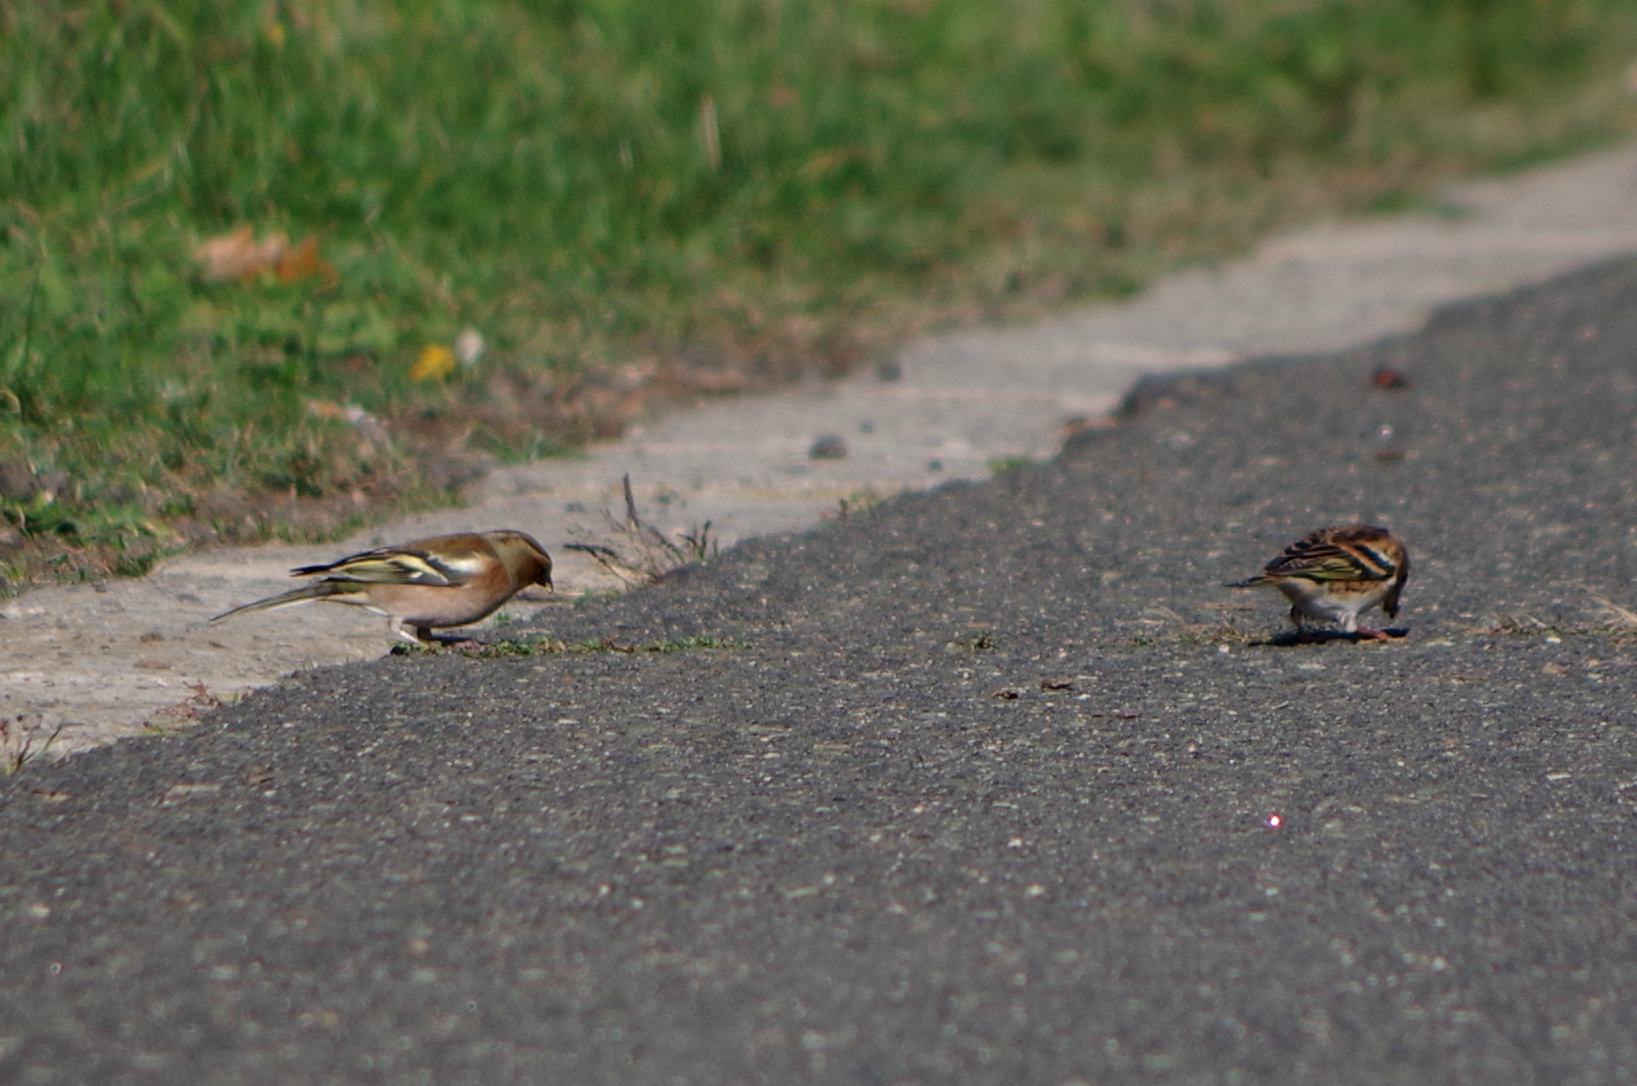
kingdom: Animalia
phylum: Chordata
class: Aves
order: Passeriformes
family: Fringillidae
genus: Fringilla
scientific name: Fringilla coelebs
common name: Common chaffinch
